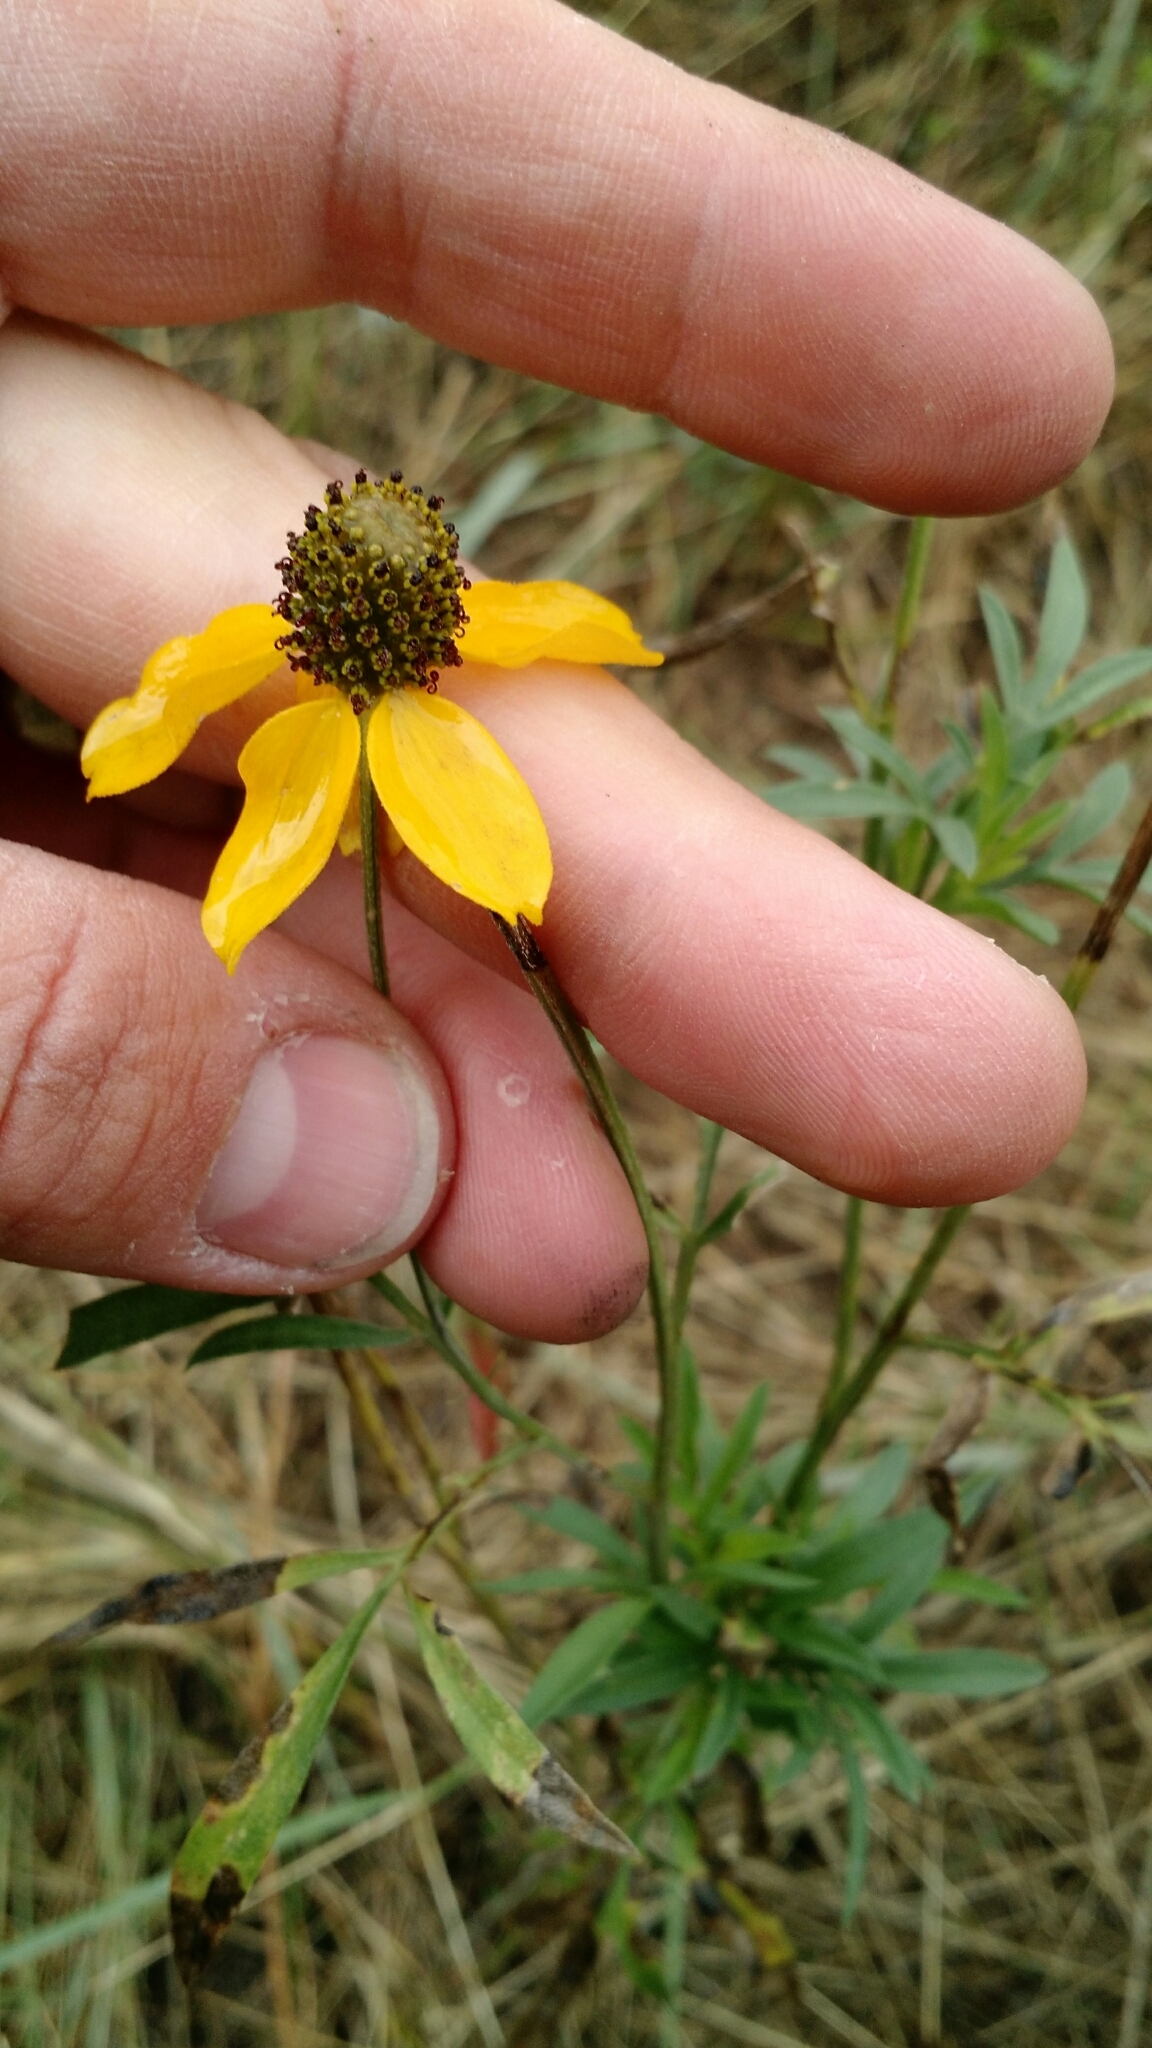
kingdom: Plantae
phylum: Tracheophyta
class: Magnoliopsida
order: Asterales
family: Asteraceae
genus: Ratibida
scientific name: Ratibida columnifera
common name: Prairie coneflower
